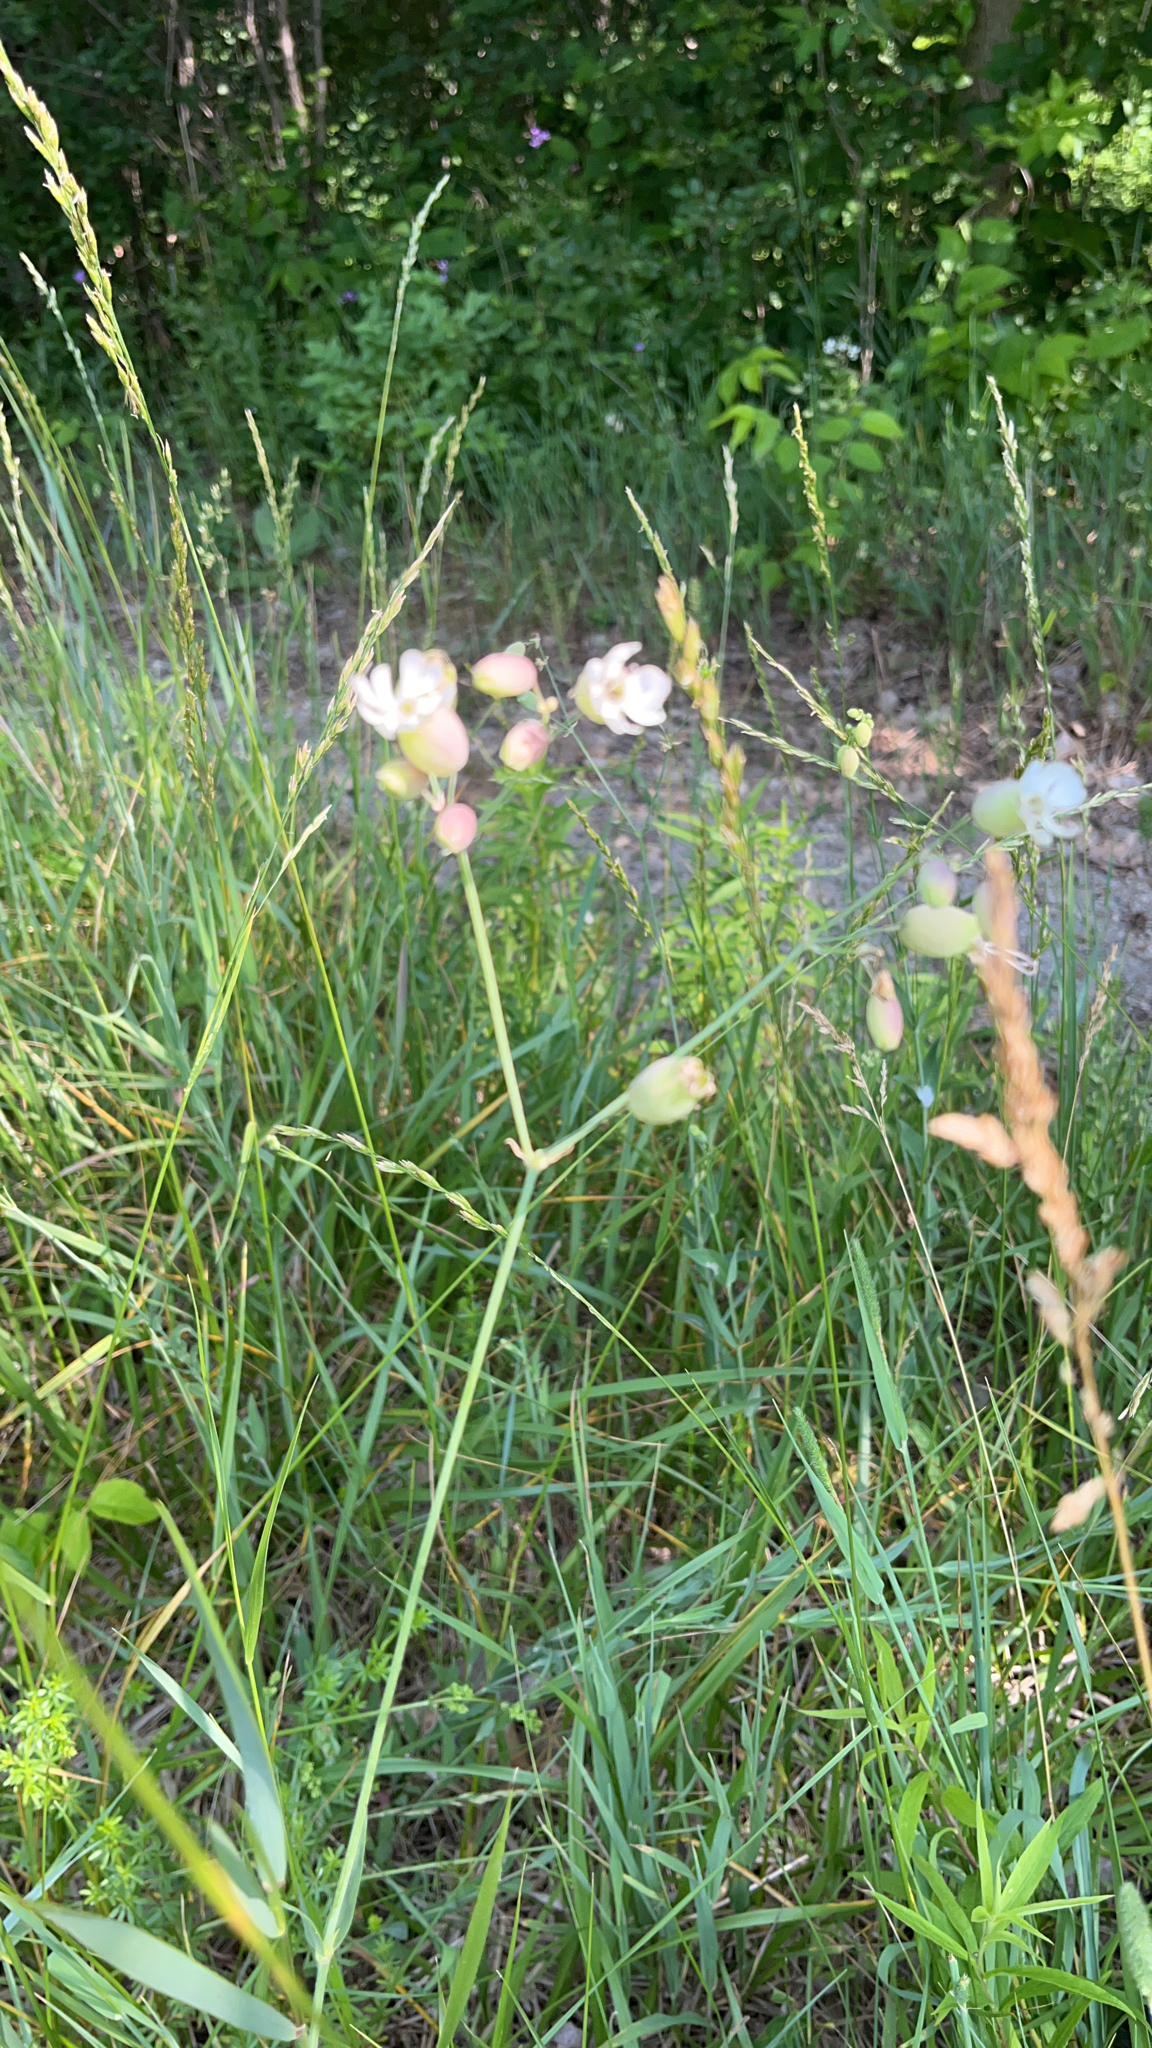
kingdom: Plantae
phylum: Tracheophyta
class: Magnoliopsida
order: Caryophyllales
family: Caryophyllaceae
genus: Silene
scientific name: Silene vulgaris
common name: Bladder campion
